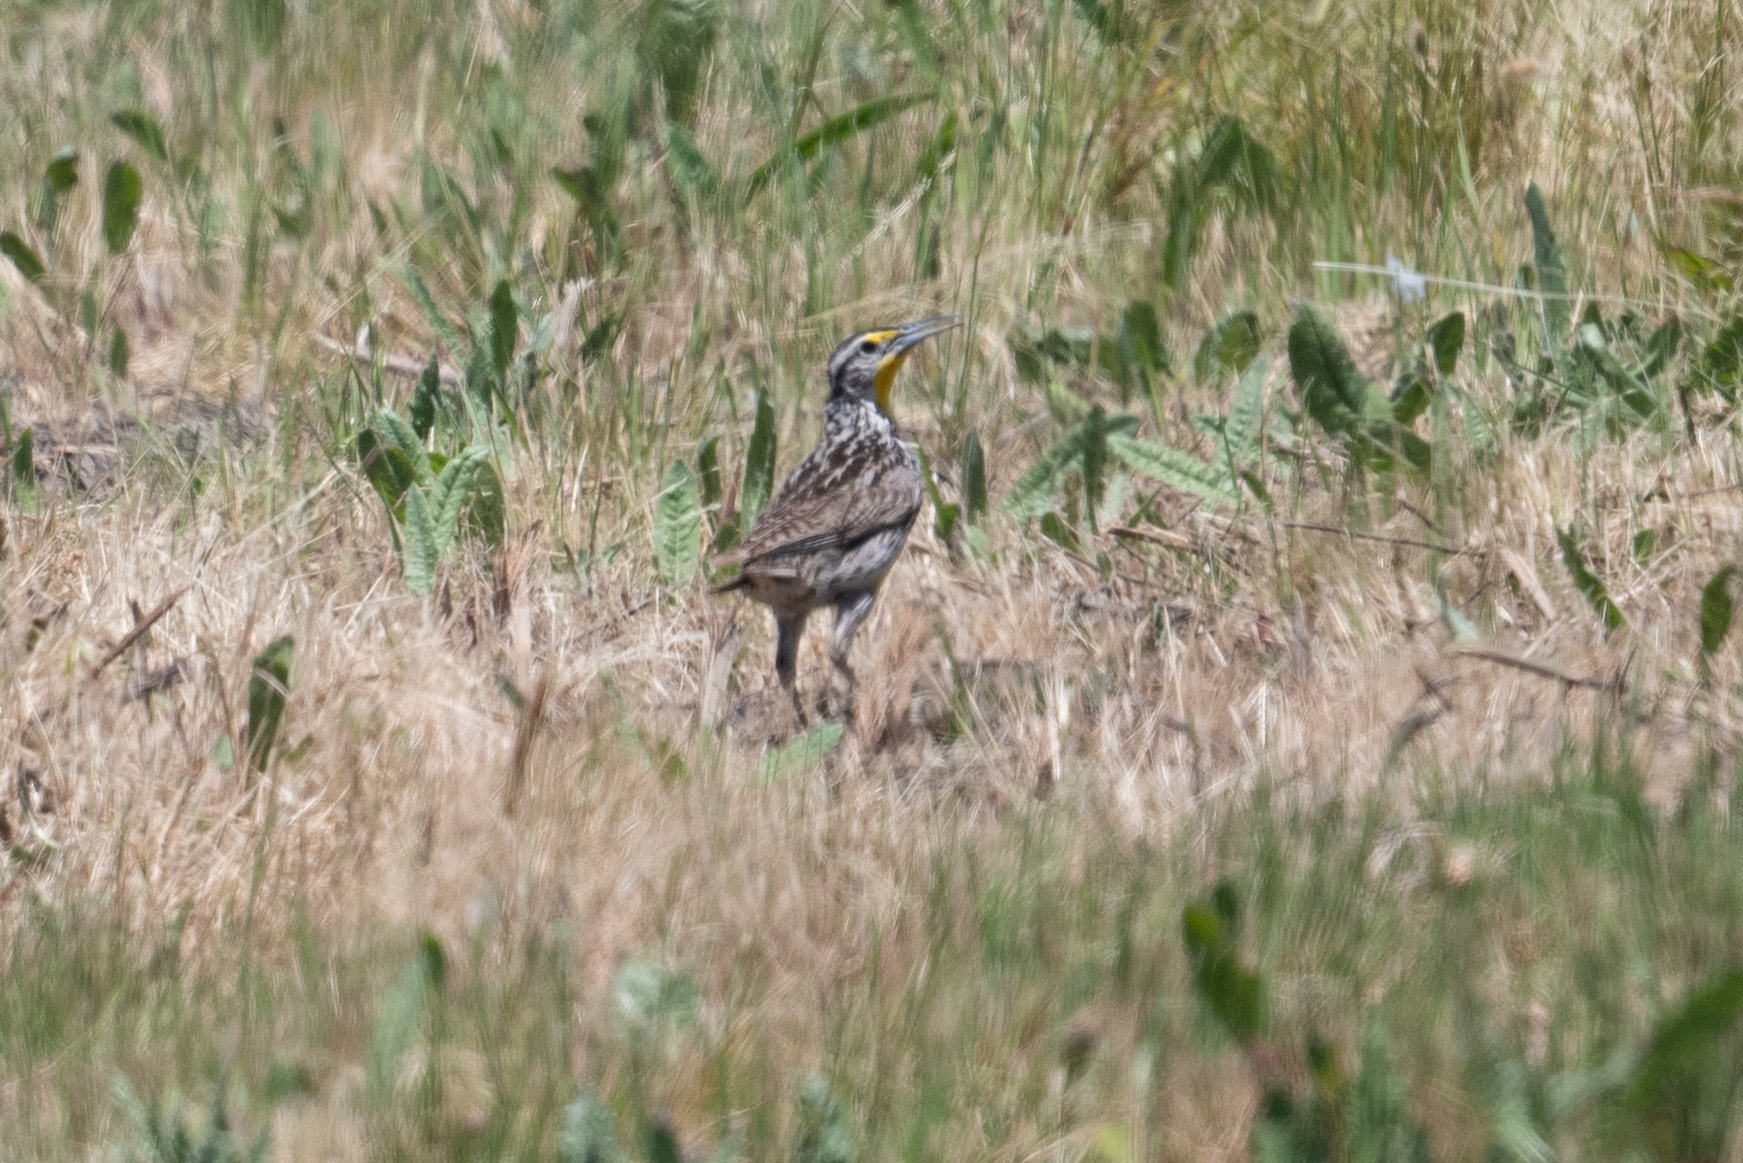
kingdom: Animalia
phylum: Chordata
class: Aves
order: Passeriformes
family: Icteridae
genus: Sturnella
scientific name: Sturnella neglecta
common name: Western meadowlark
